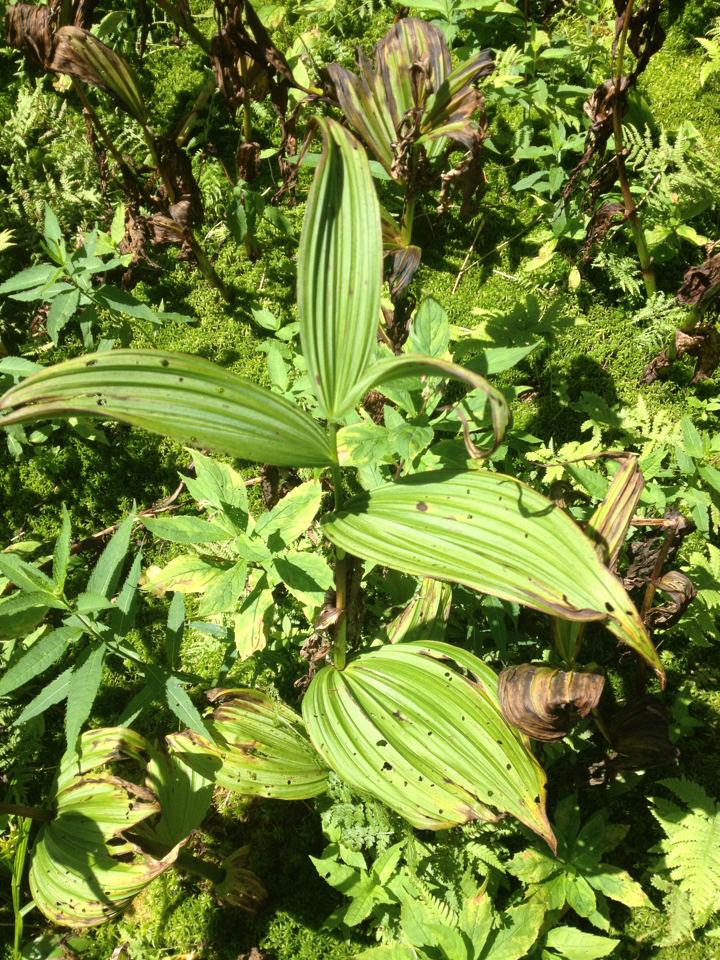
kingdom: Plantae
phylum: Tracheophyta
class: Liliopsida
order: Liliales
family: Melanthiaceae
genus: Veratrum
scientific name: Veratrum viride
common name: American false hellebore
